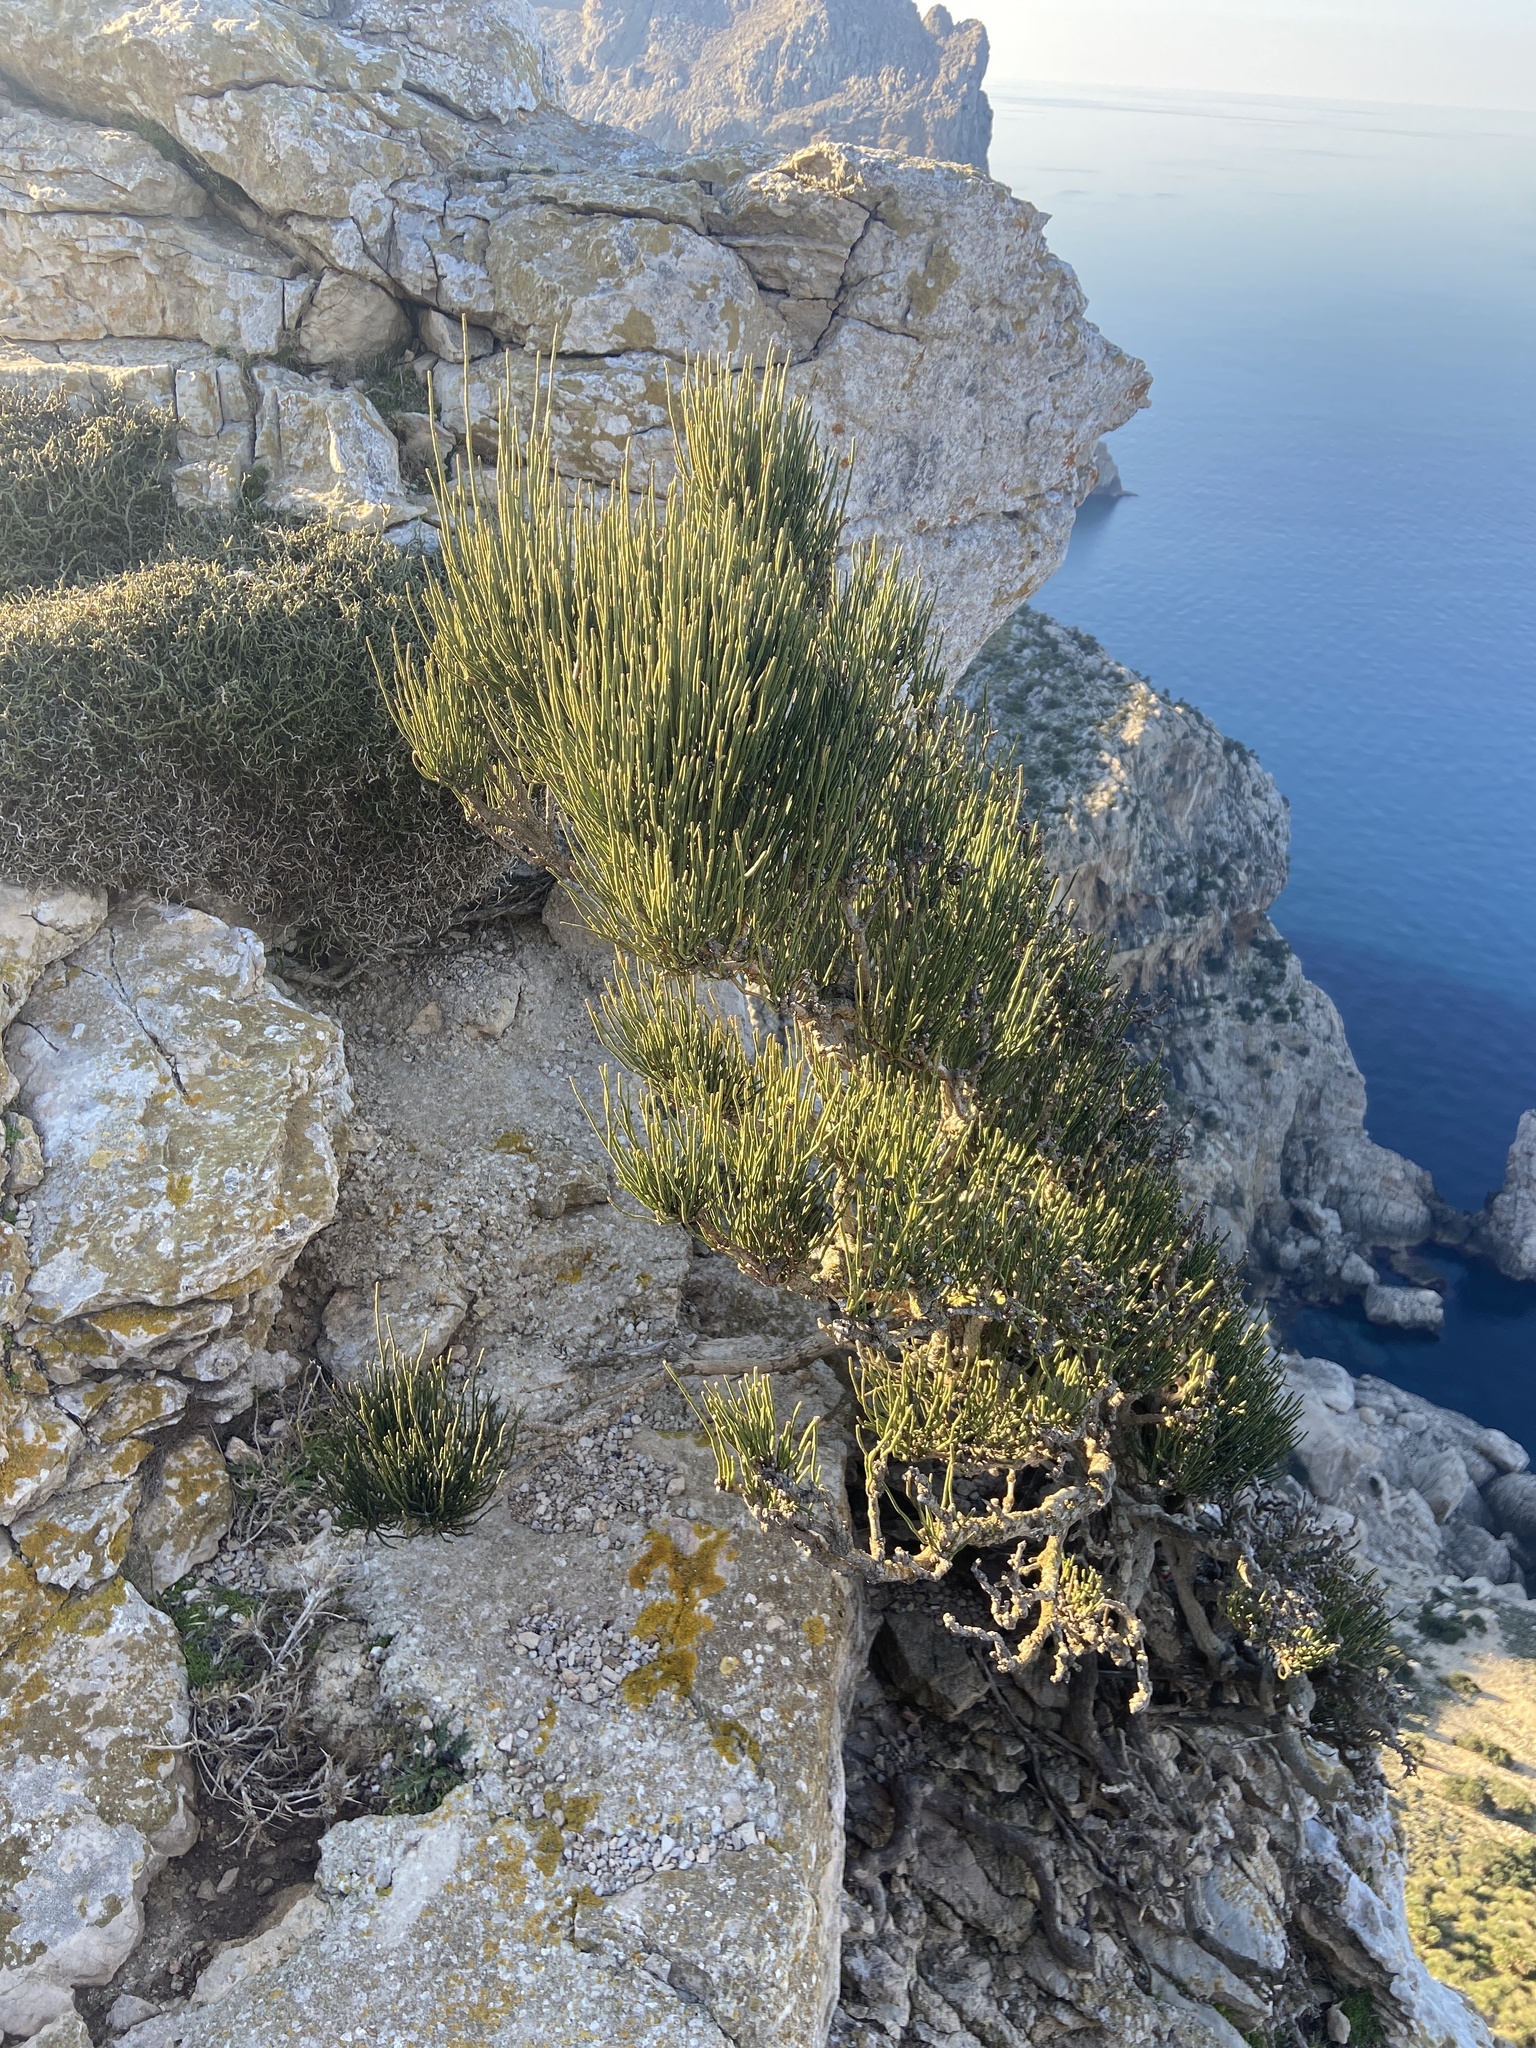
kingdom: Plantae
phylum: Tracheophyta
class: Gnetopsida
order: Ephedrales
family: Ephedraceae
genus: Ephedra
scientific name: Ephedra fragilis
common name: Joint pine
